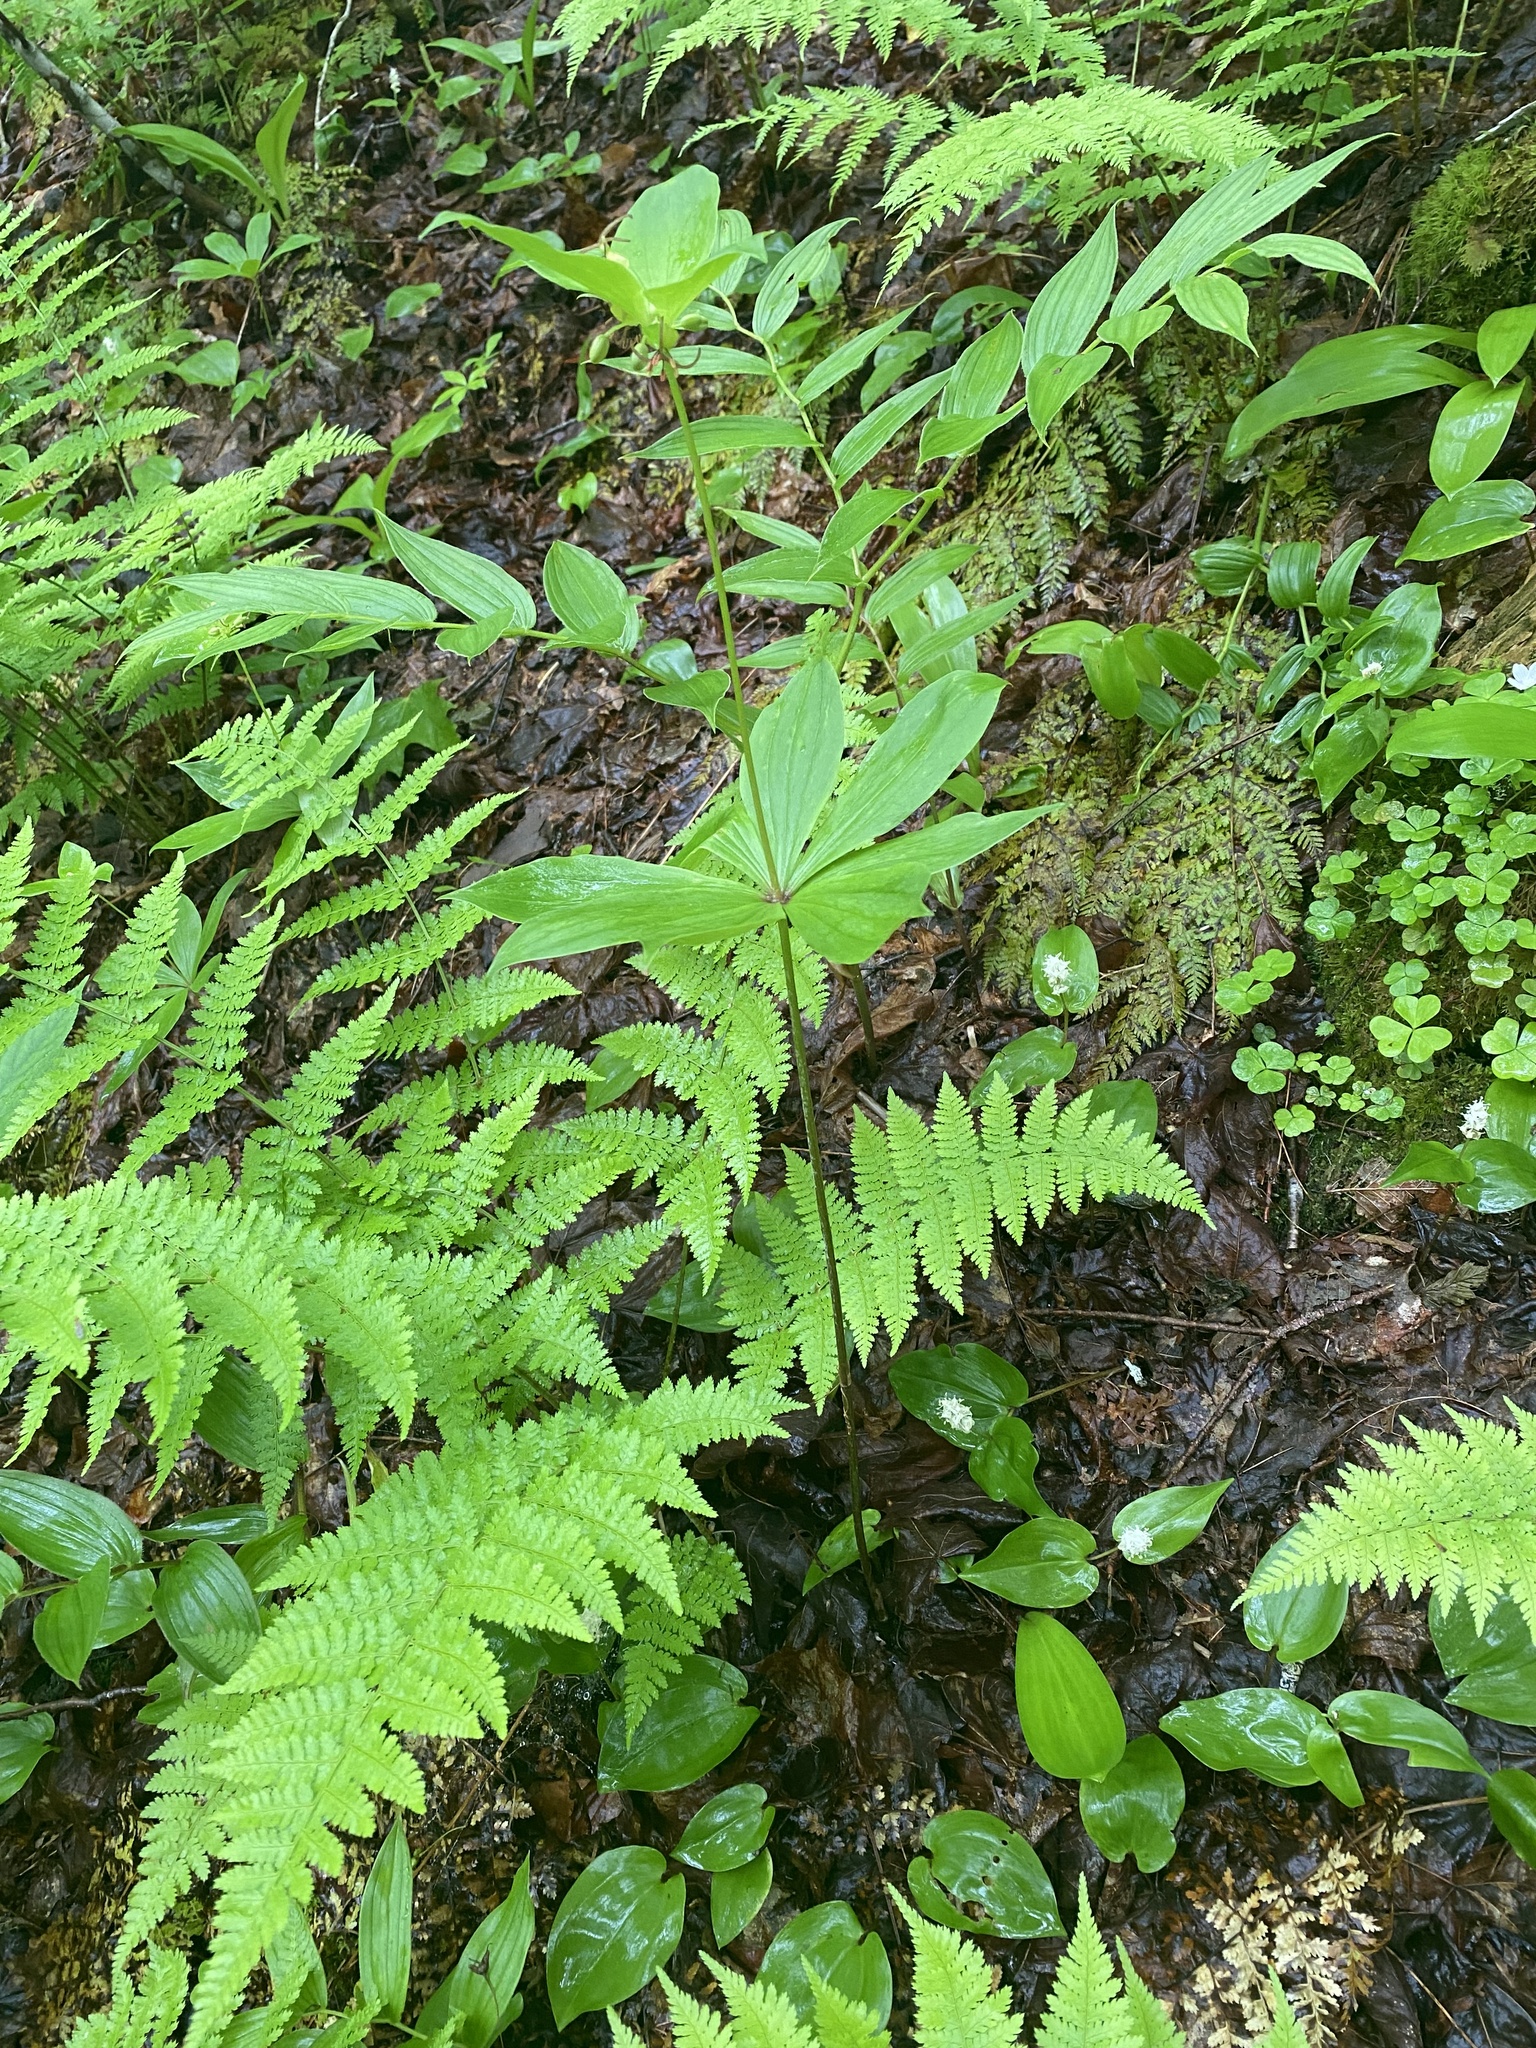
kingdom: Plantae
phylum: Tracheophyta
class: Liliopsida
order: Liliales
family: Liliaceae
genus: Medeola
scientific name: Medeola virginiana
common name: Indian cucumber-root
